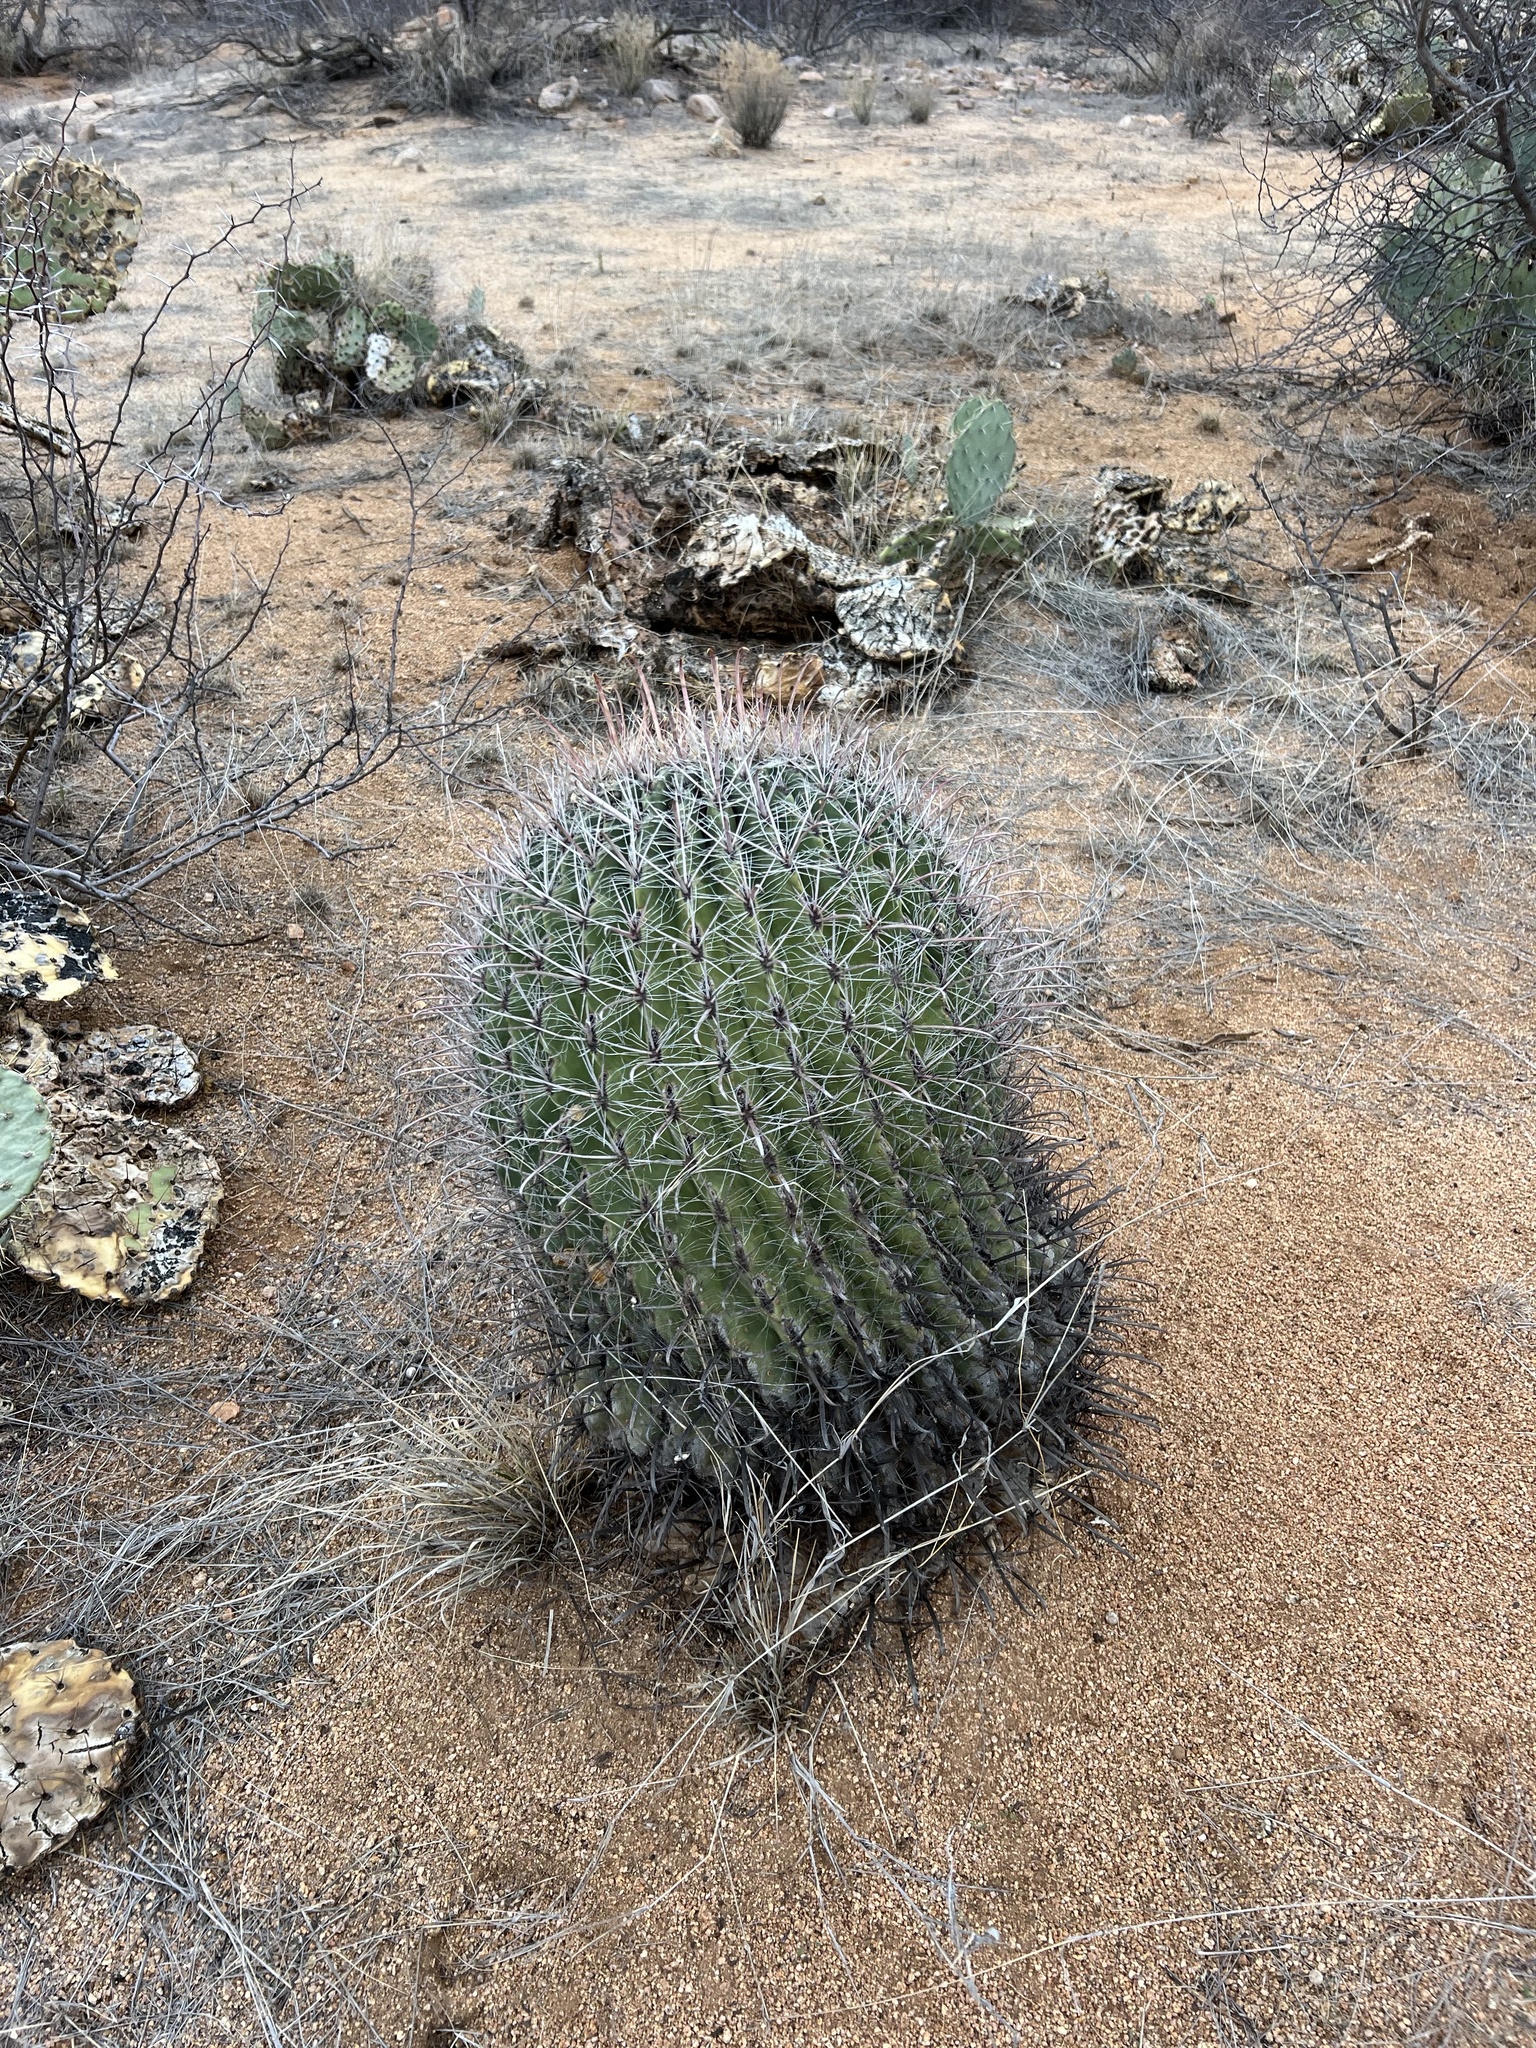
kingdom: Plantae
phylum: Tracheophyta
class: Magnoliopsida
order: Caryophyllales
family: Cactaceae
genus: Ferocactus
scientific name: Ferocactus wislizeni
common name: Candy barrel cactus
